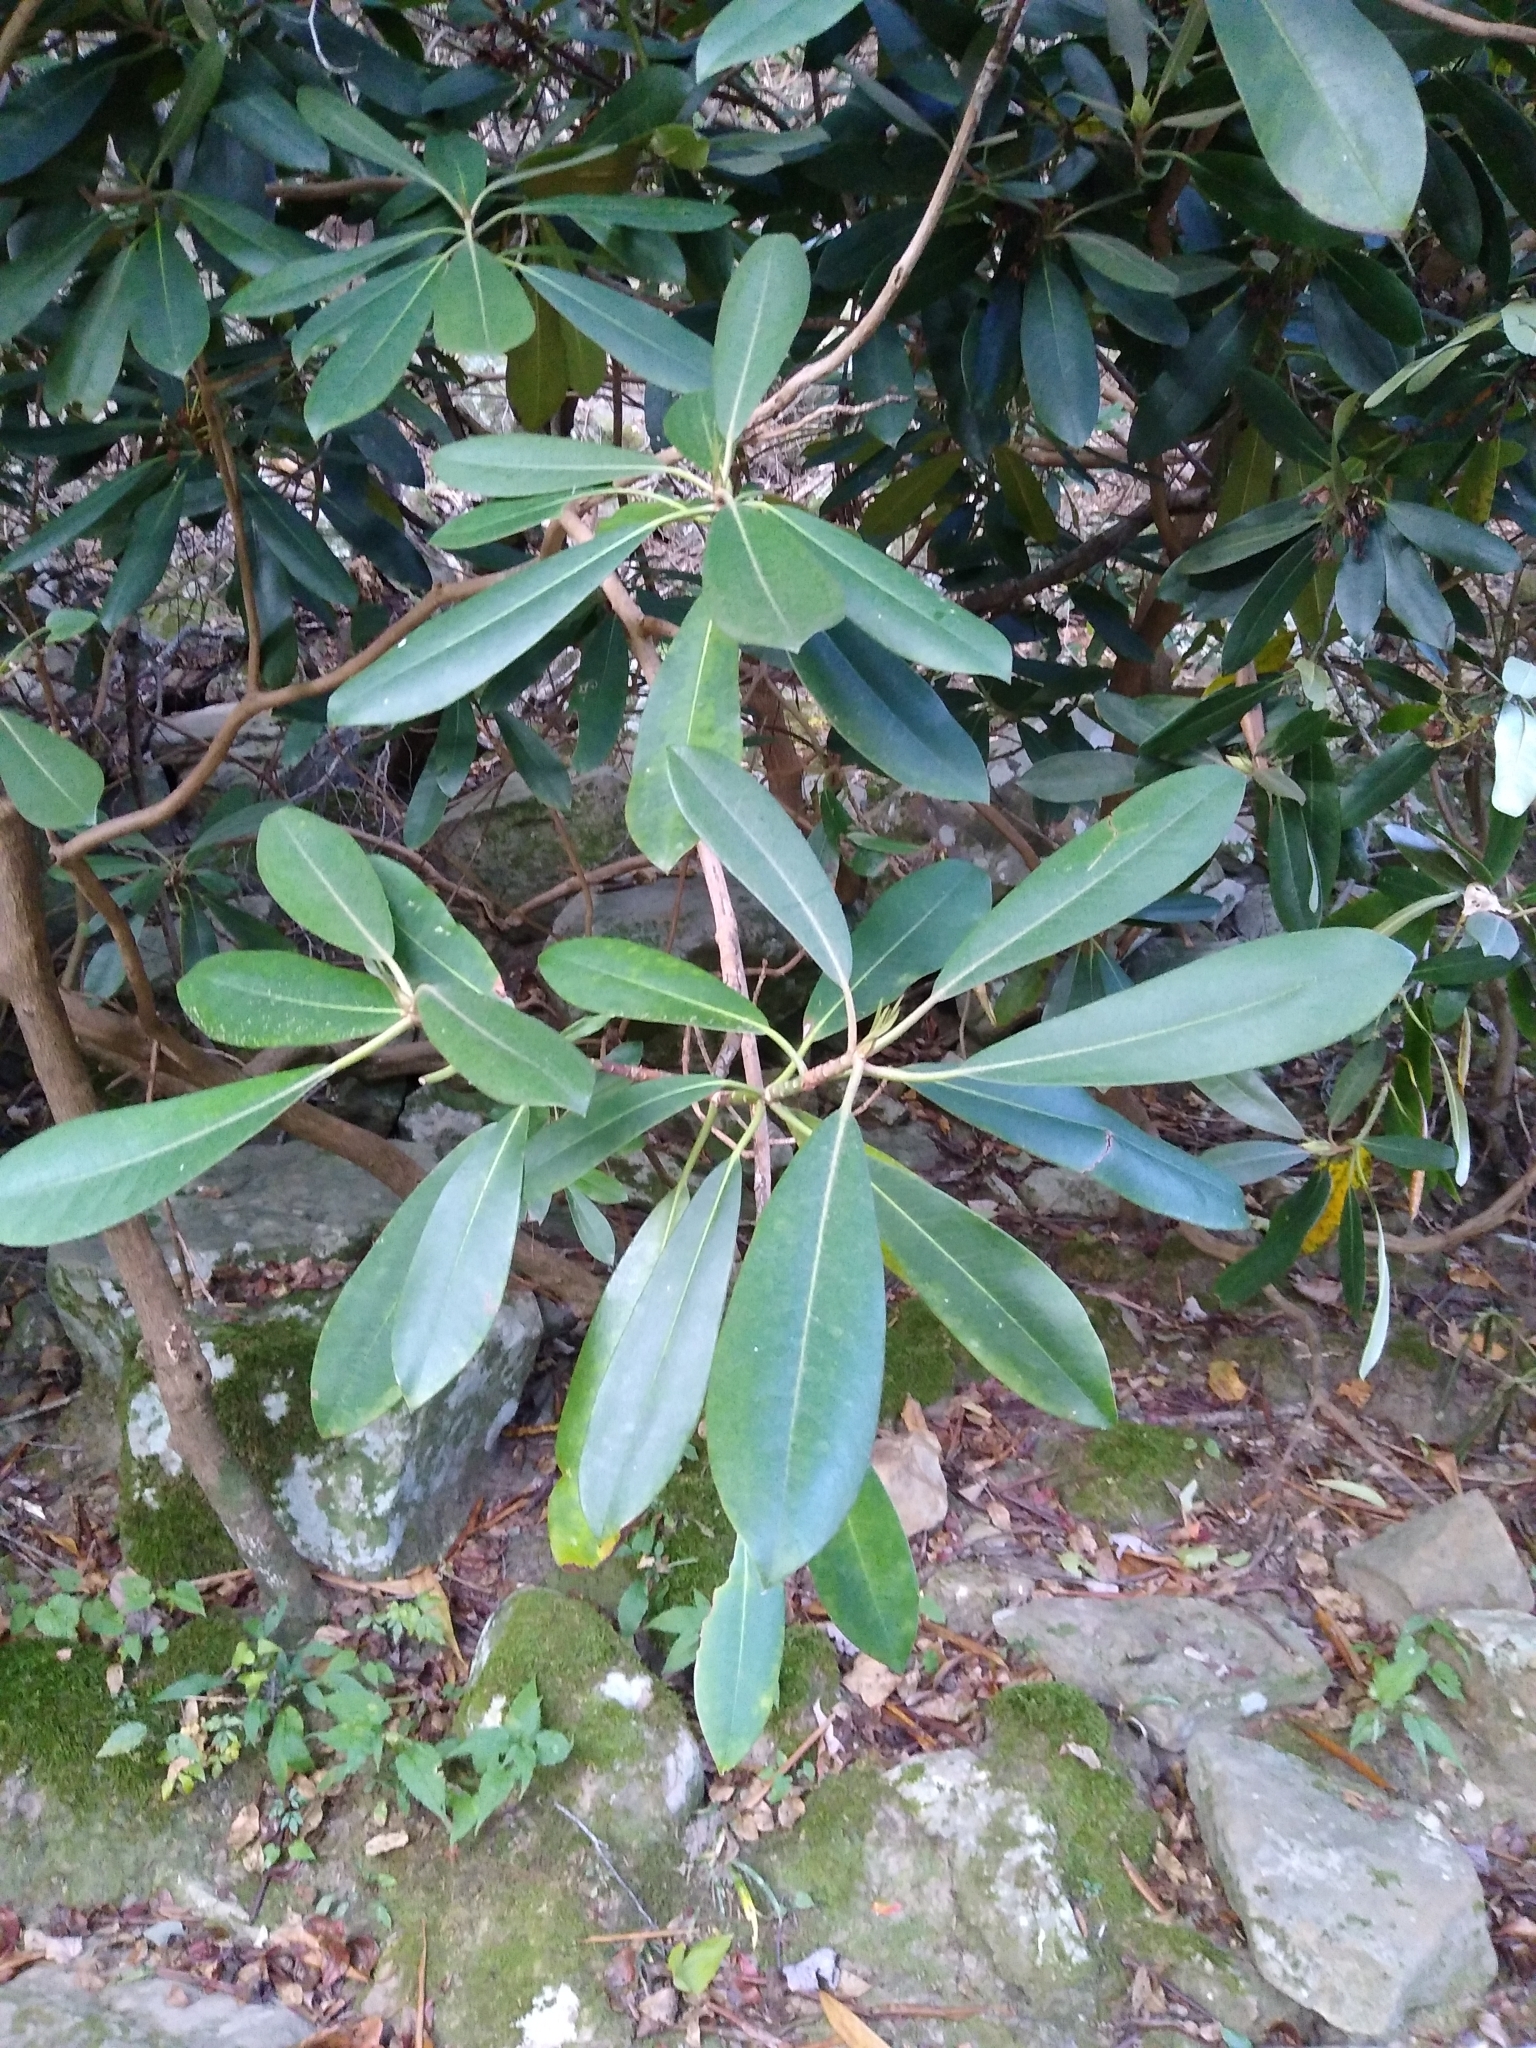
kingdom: Plantae
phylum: Tracheophyta
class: Magnoliopsida
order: Ericales
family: Ericaceae
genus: Rhododendron
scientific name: Rhododendron maximum
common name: Great rhododendron
